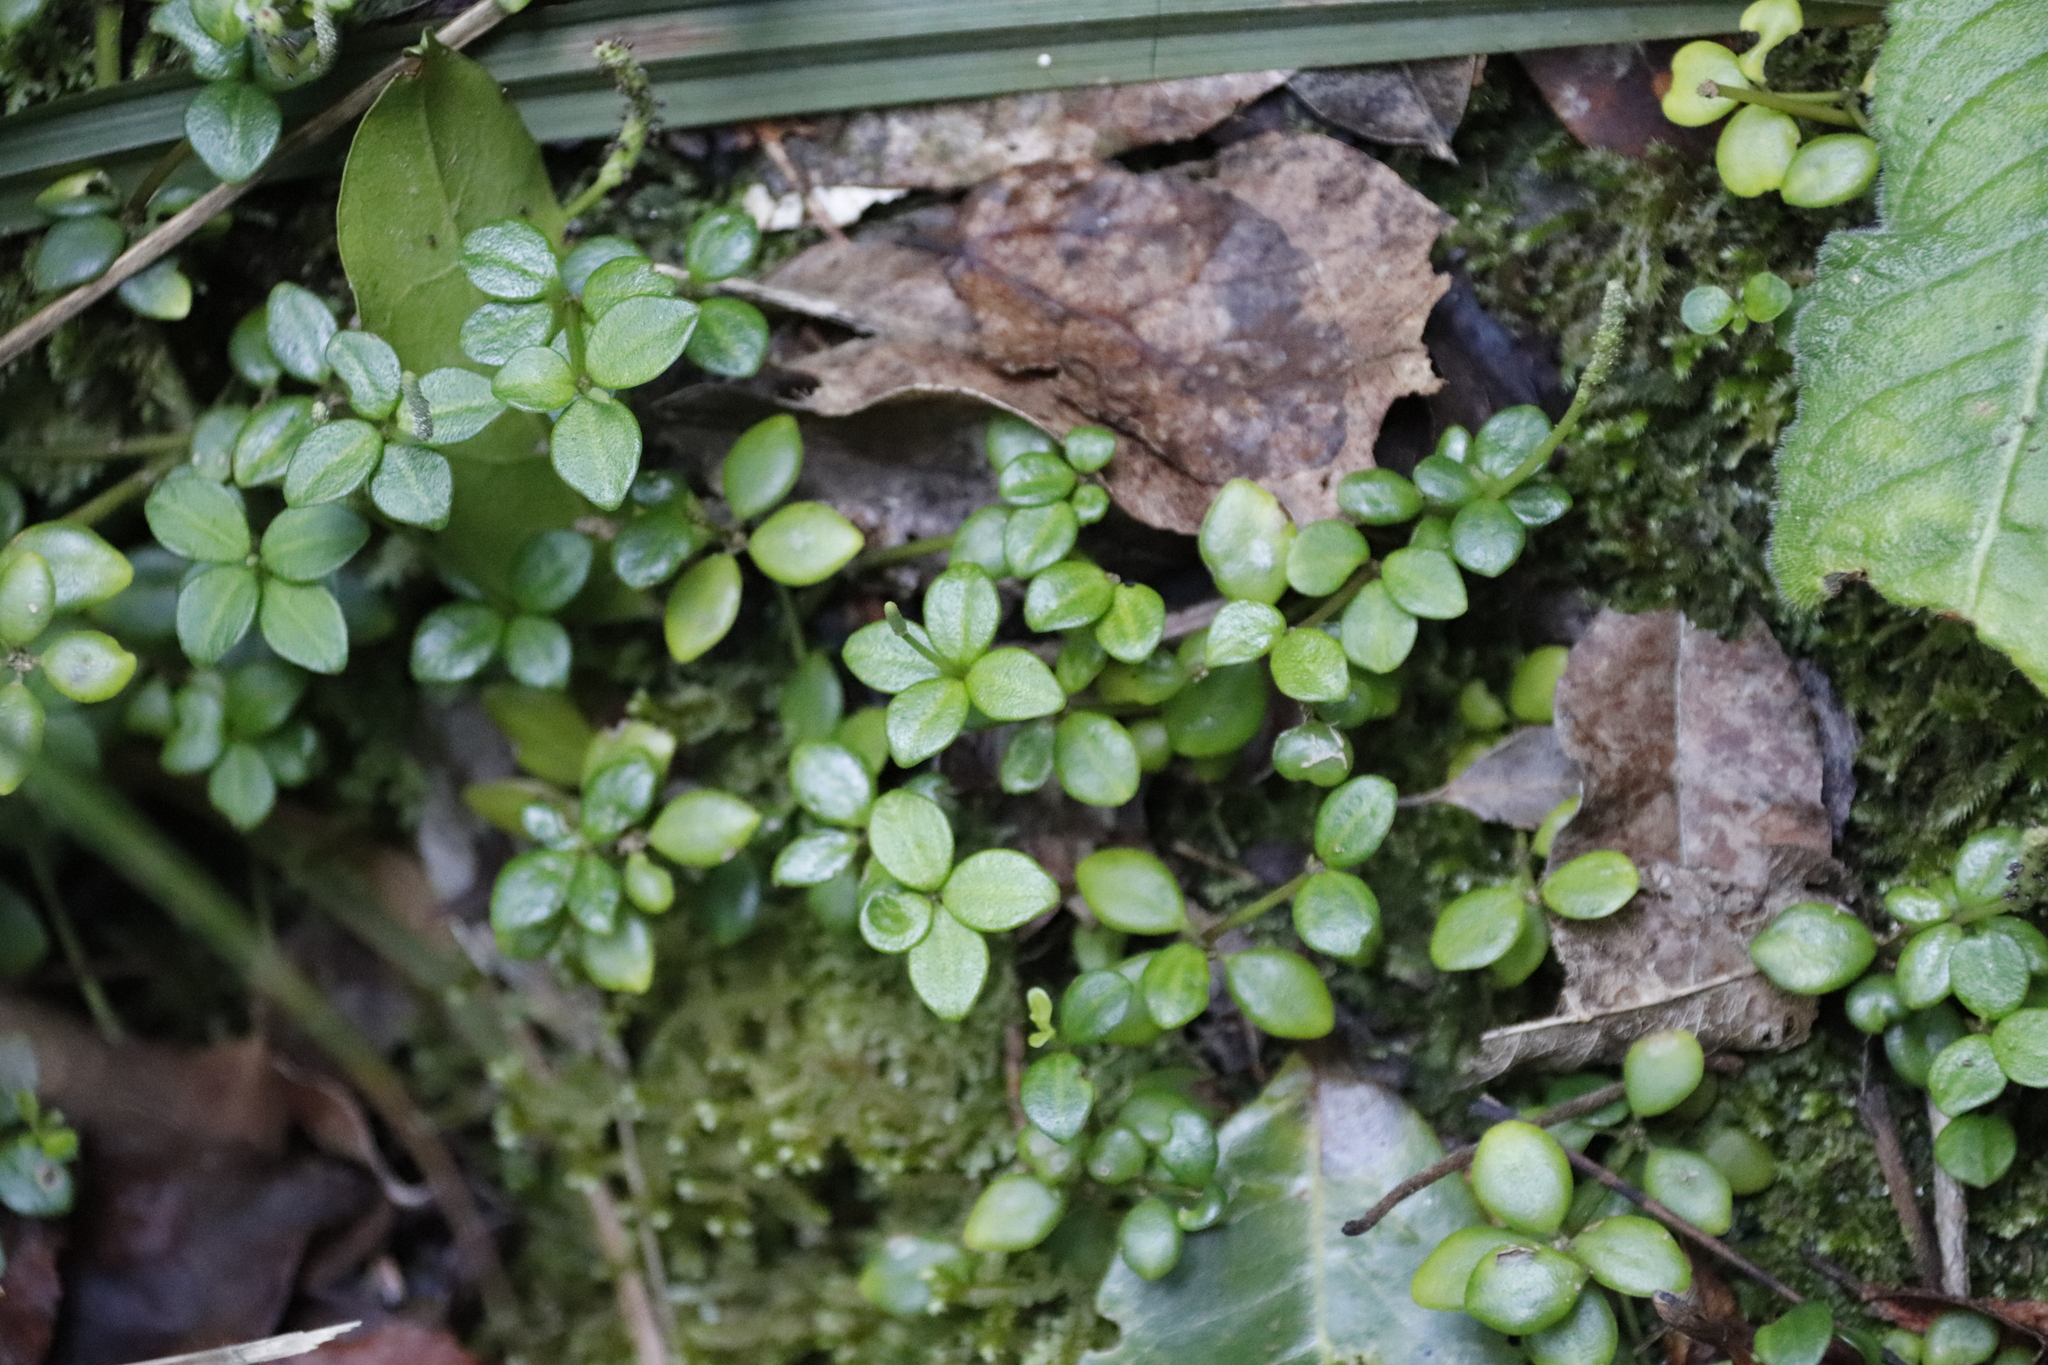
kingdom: Plantae
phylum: Tracheophyta
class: Magnoliopsida
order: Piperales
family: Piperaceae
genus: Peperomia
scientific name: Peperomia tetraphylla
